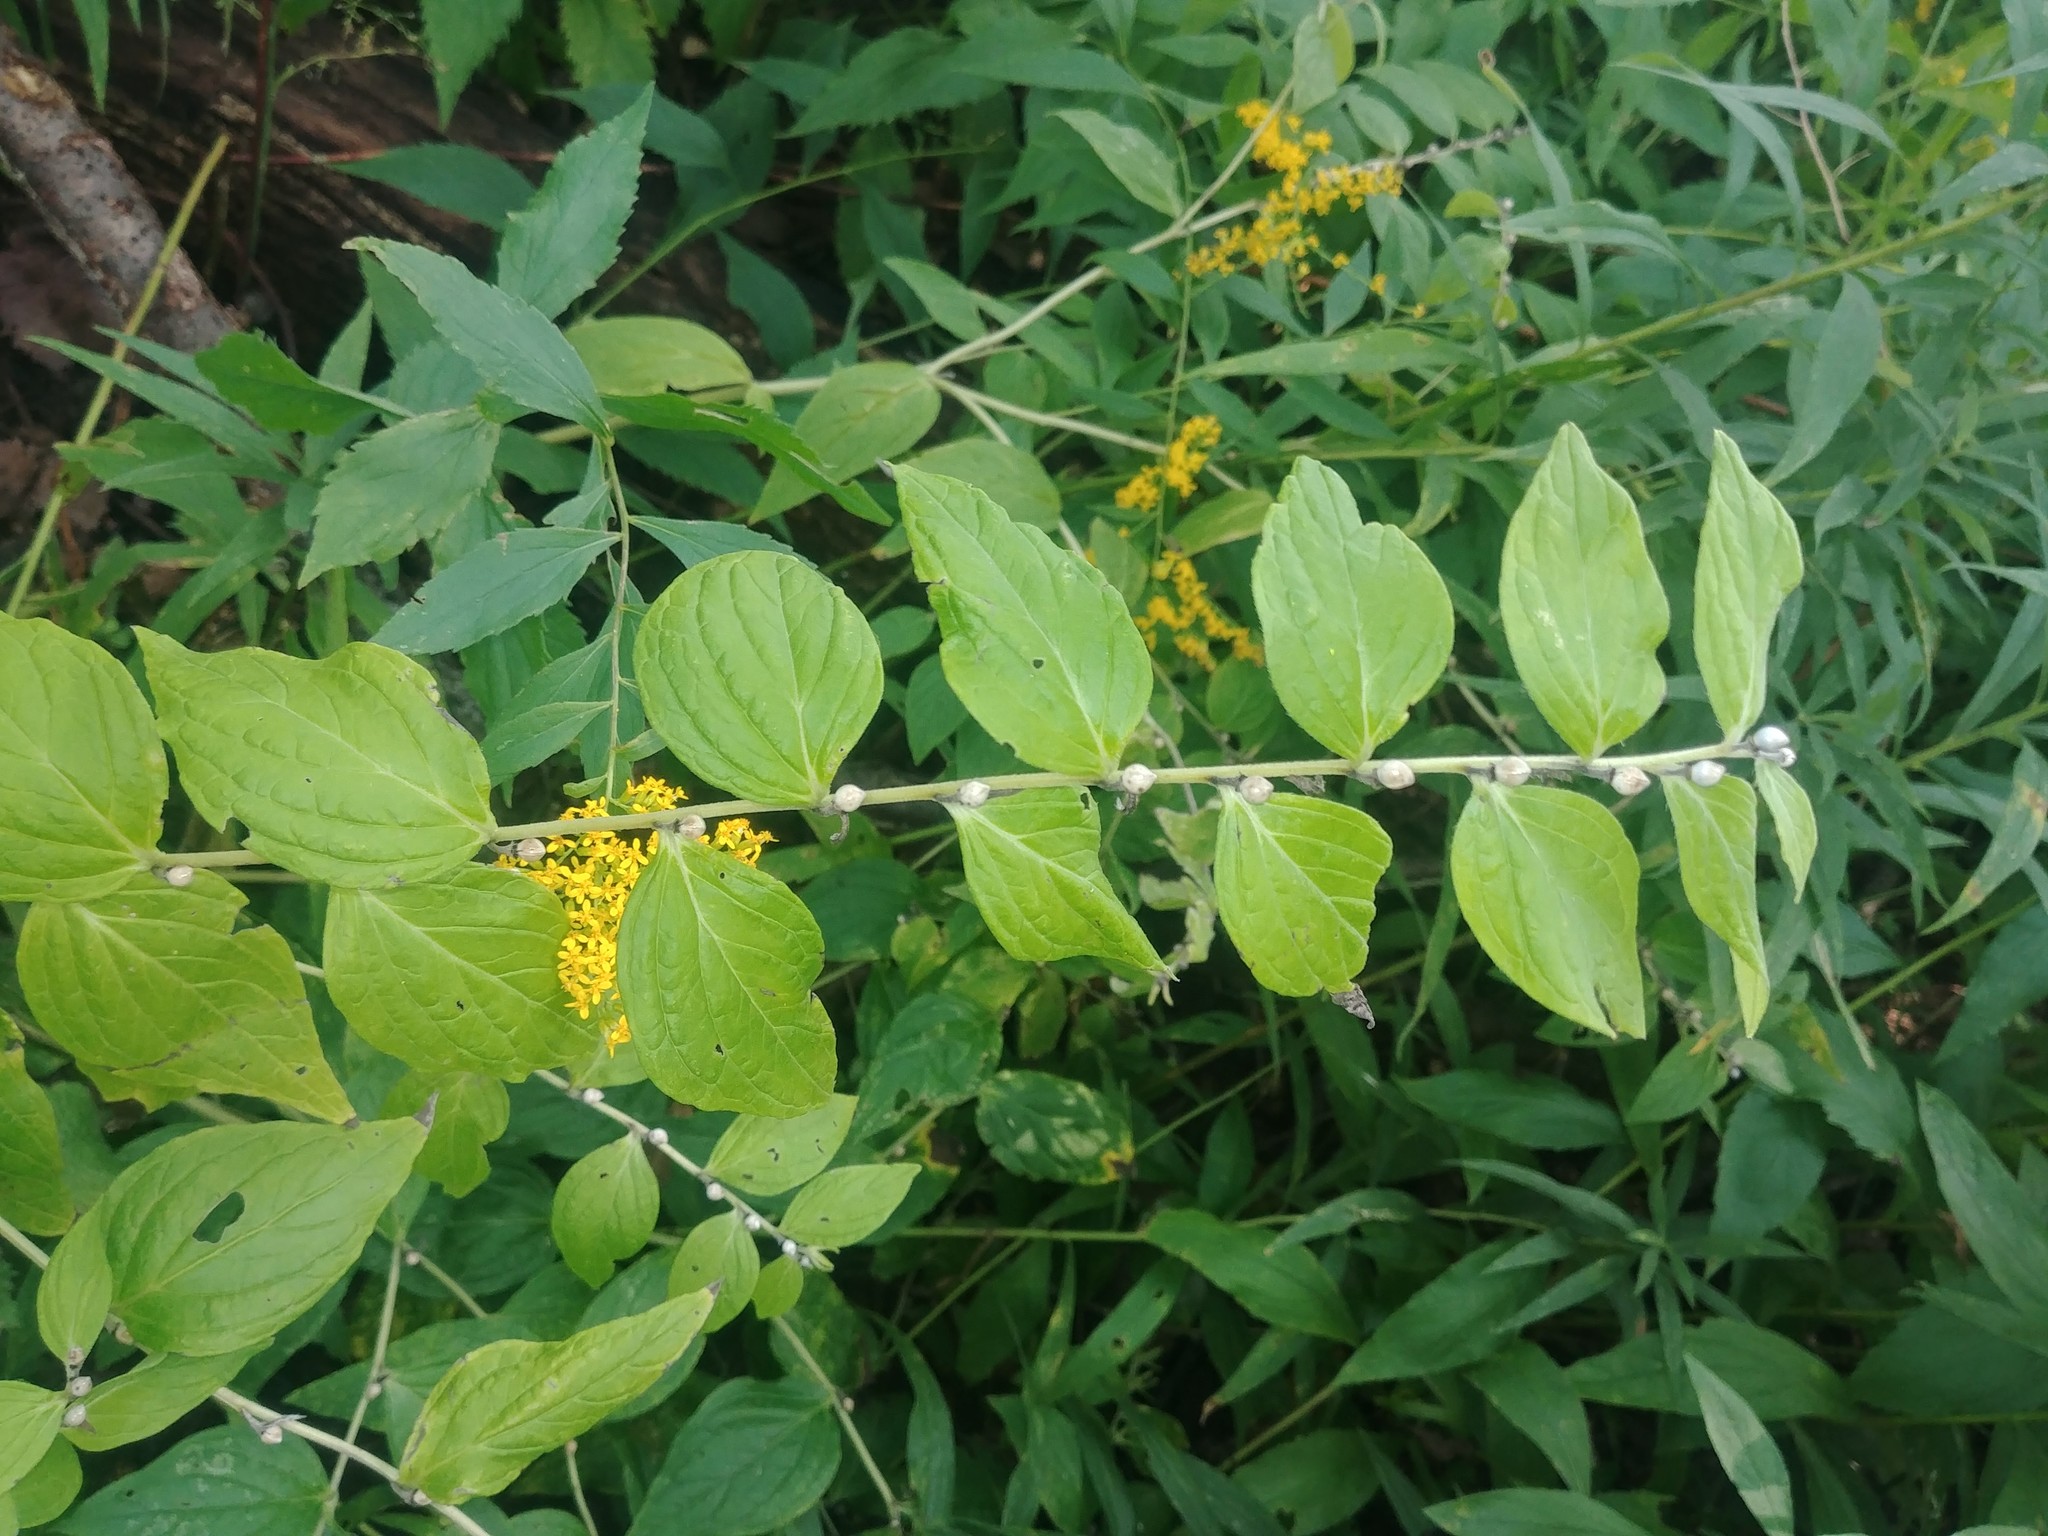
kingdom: Plantae
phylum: Tracheophyta
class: Magnoliopsida
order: Boraginales
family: Boraginaceae
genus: Lithospermum
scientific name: Lithospermum latifolium
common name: American gromwell
